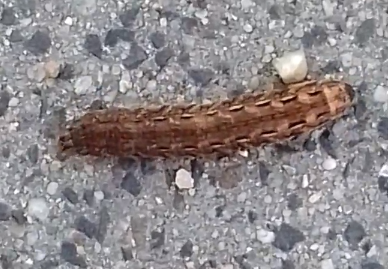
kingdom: Animalia
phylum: Arthropoda
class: Insecta
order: Lepidoptera
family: Noctuidae
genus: Noctua
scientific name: Noctua pronuba
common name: Large yellow underwing
